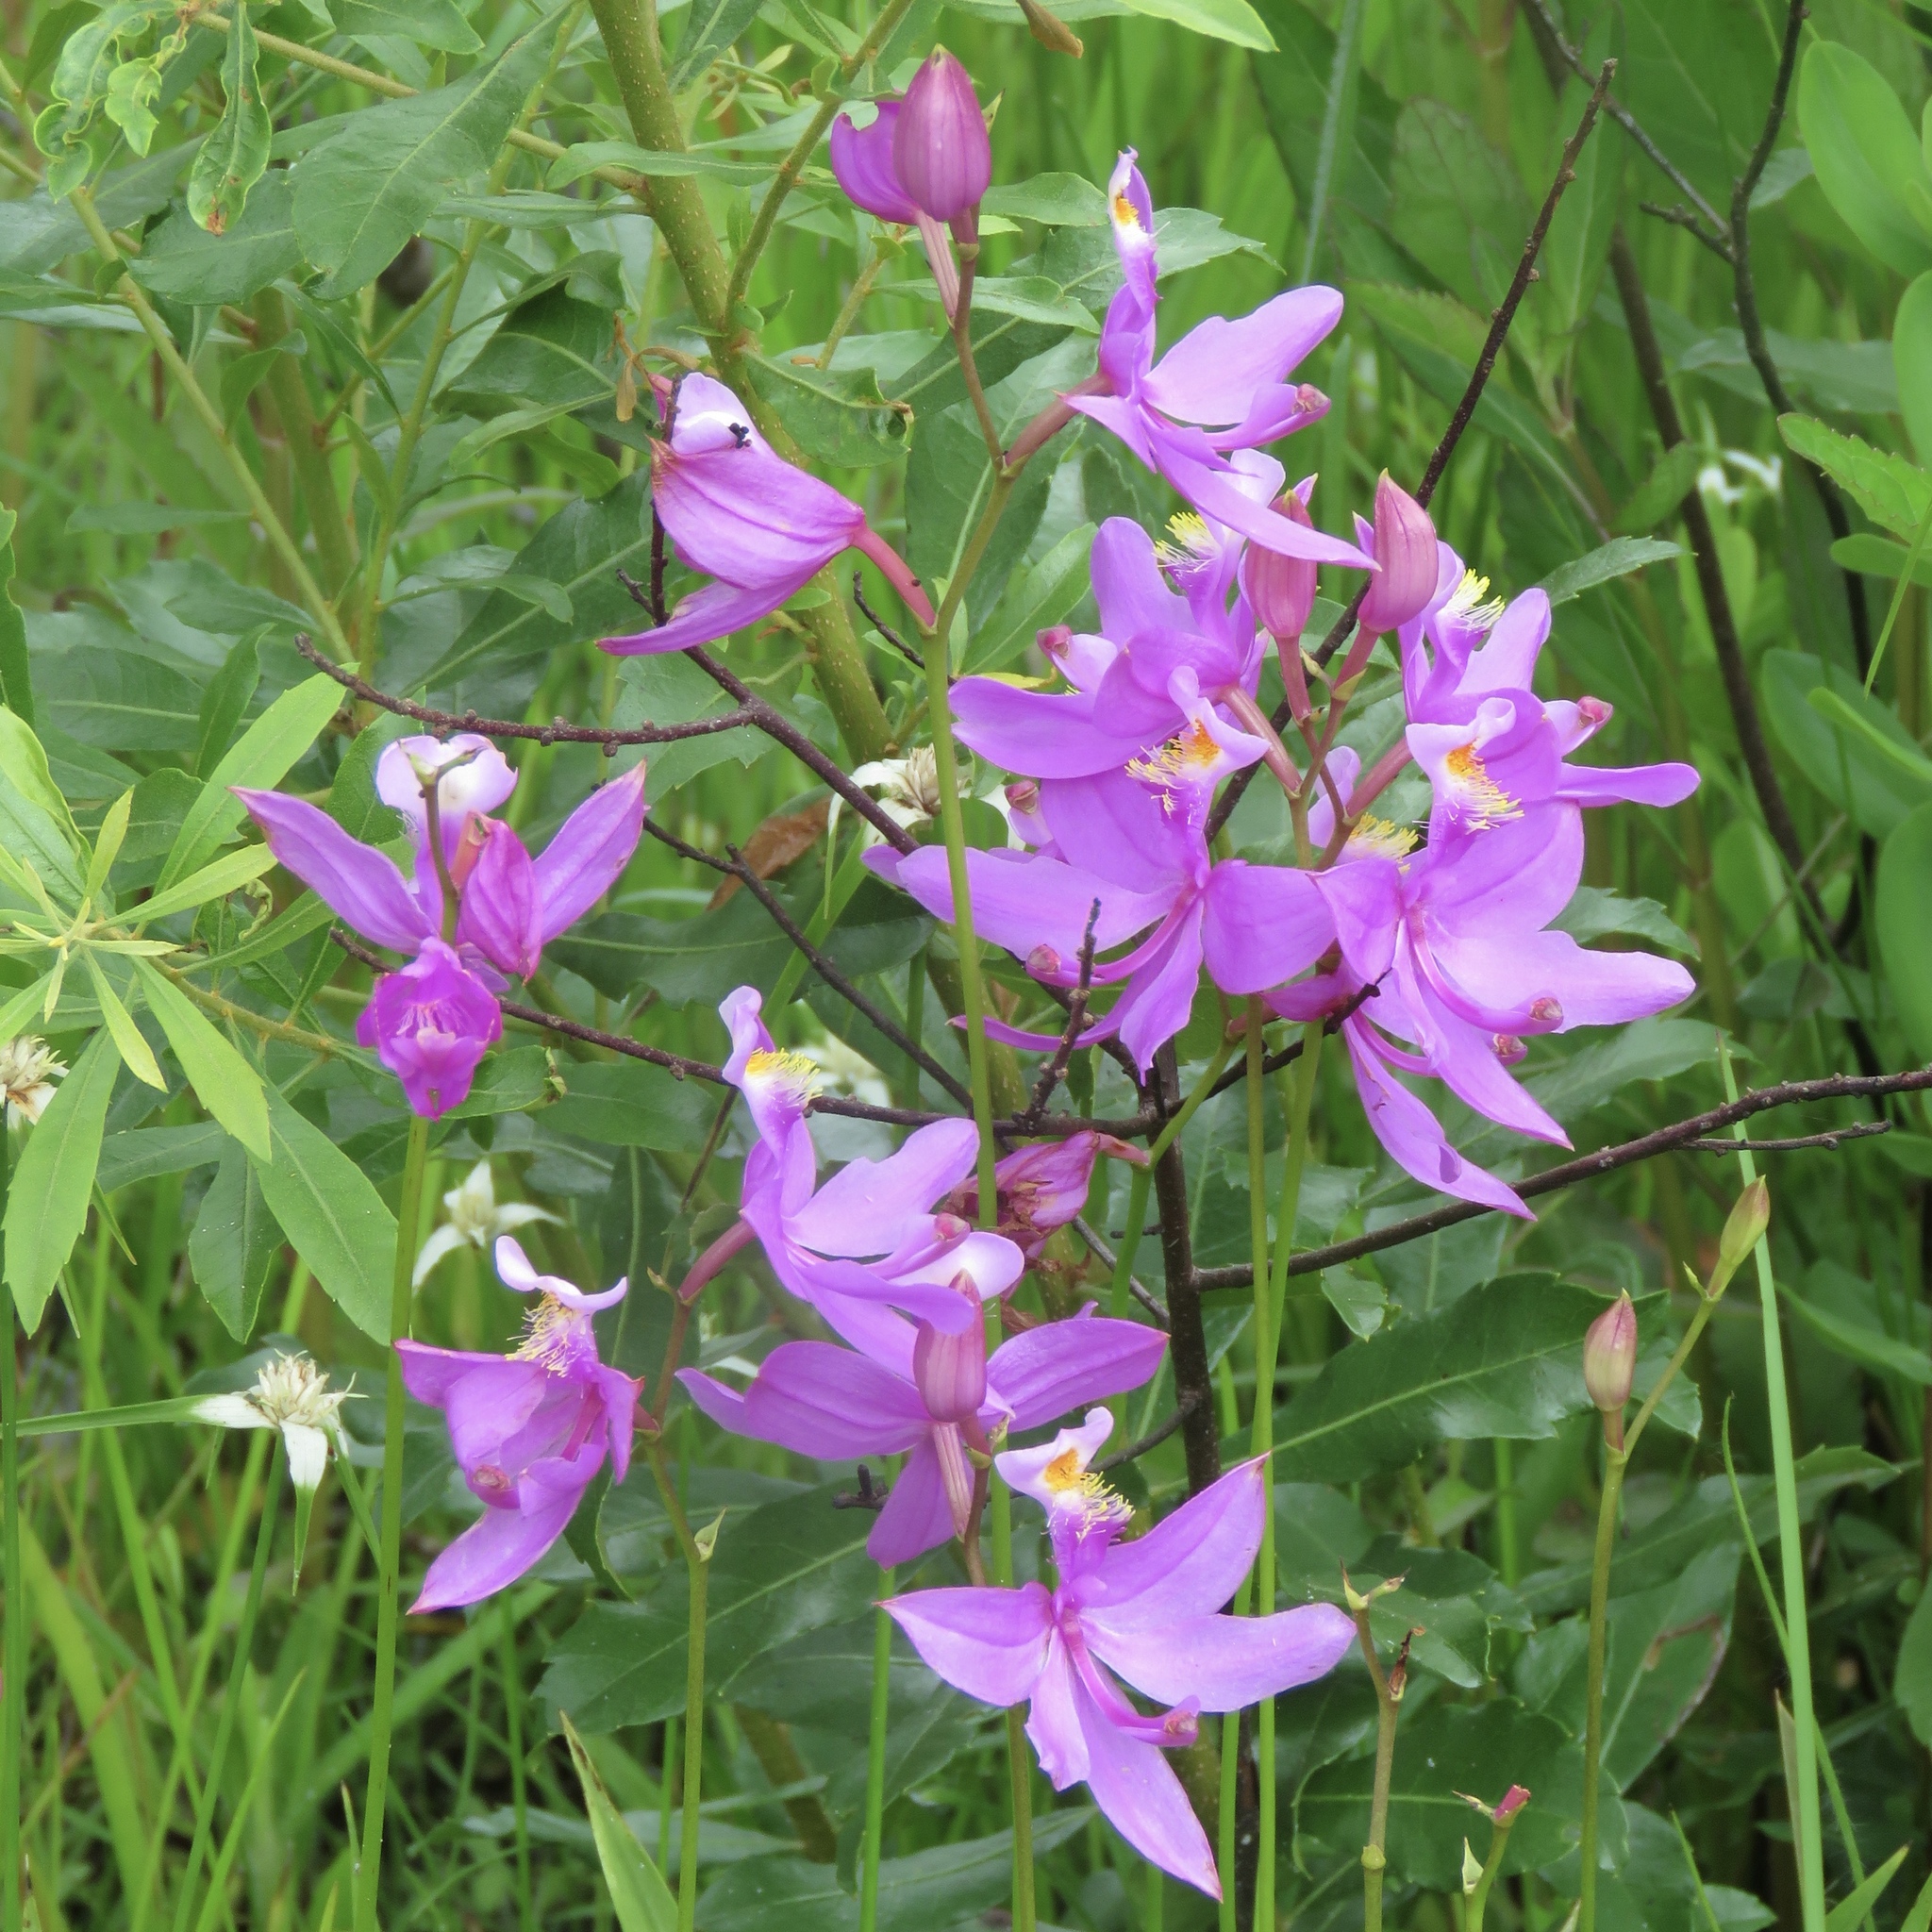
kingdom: Plantae
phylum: Tracheophyta
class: Liliopsida
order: Asparagales
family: Orchidaceae
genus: Calopogon
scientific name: Calopogon tuberosus
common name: Grass-pink
